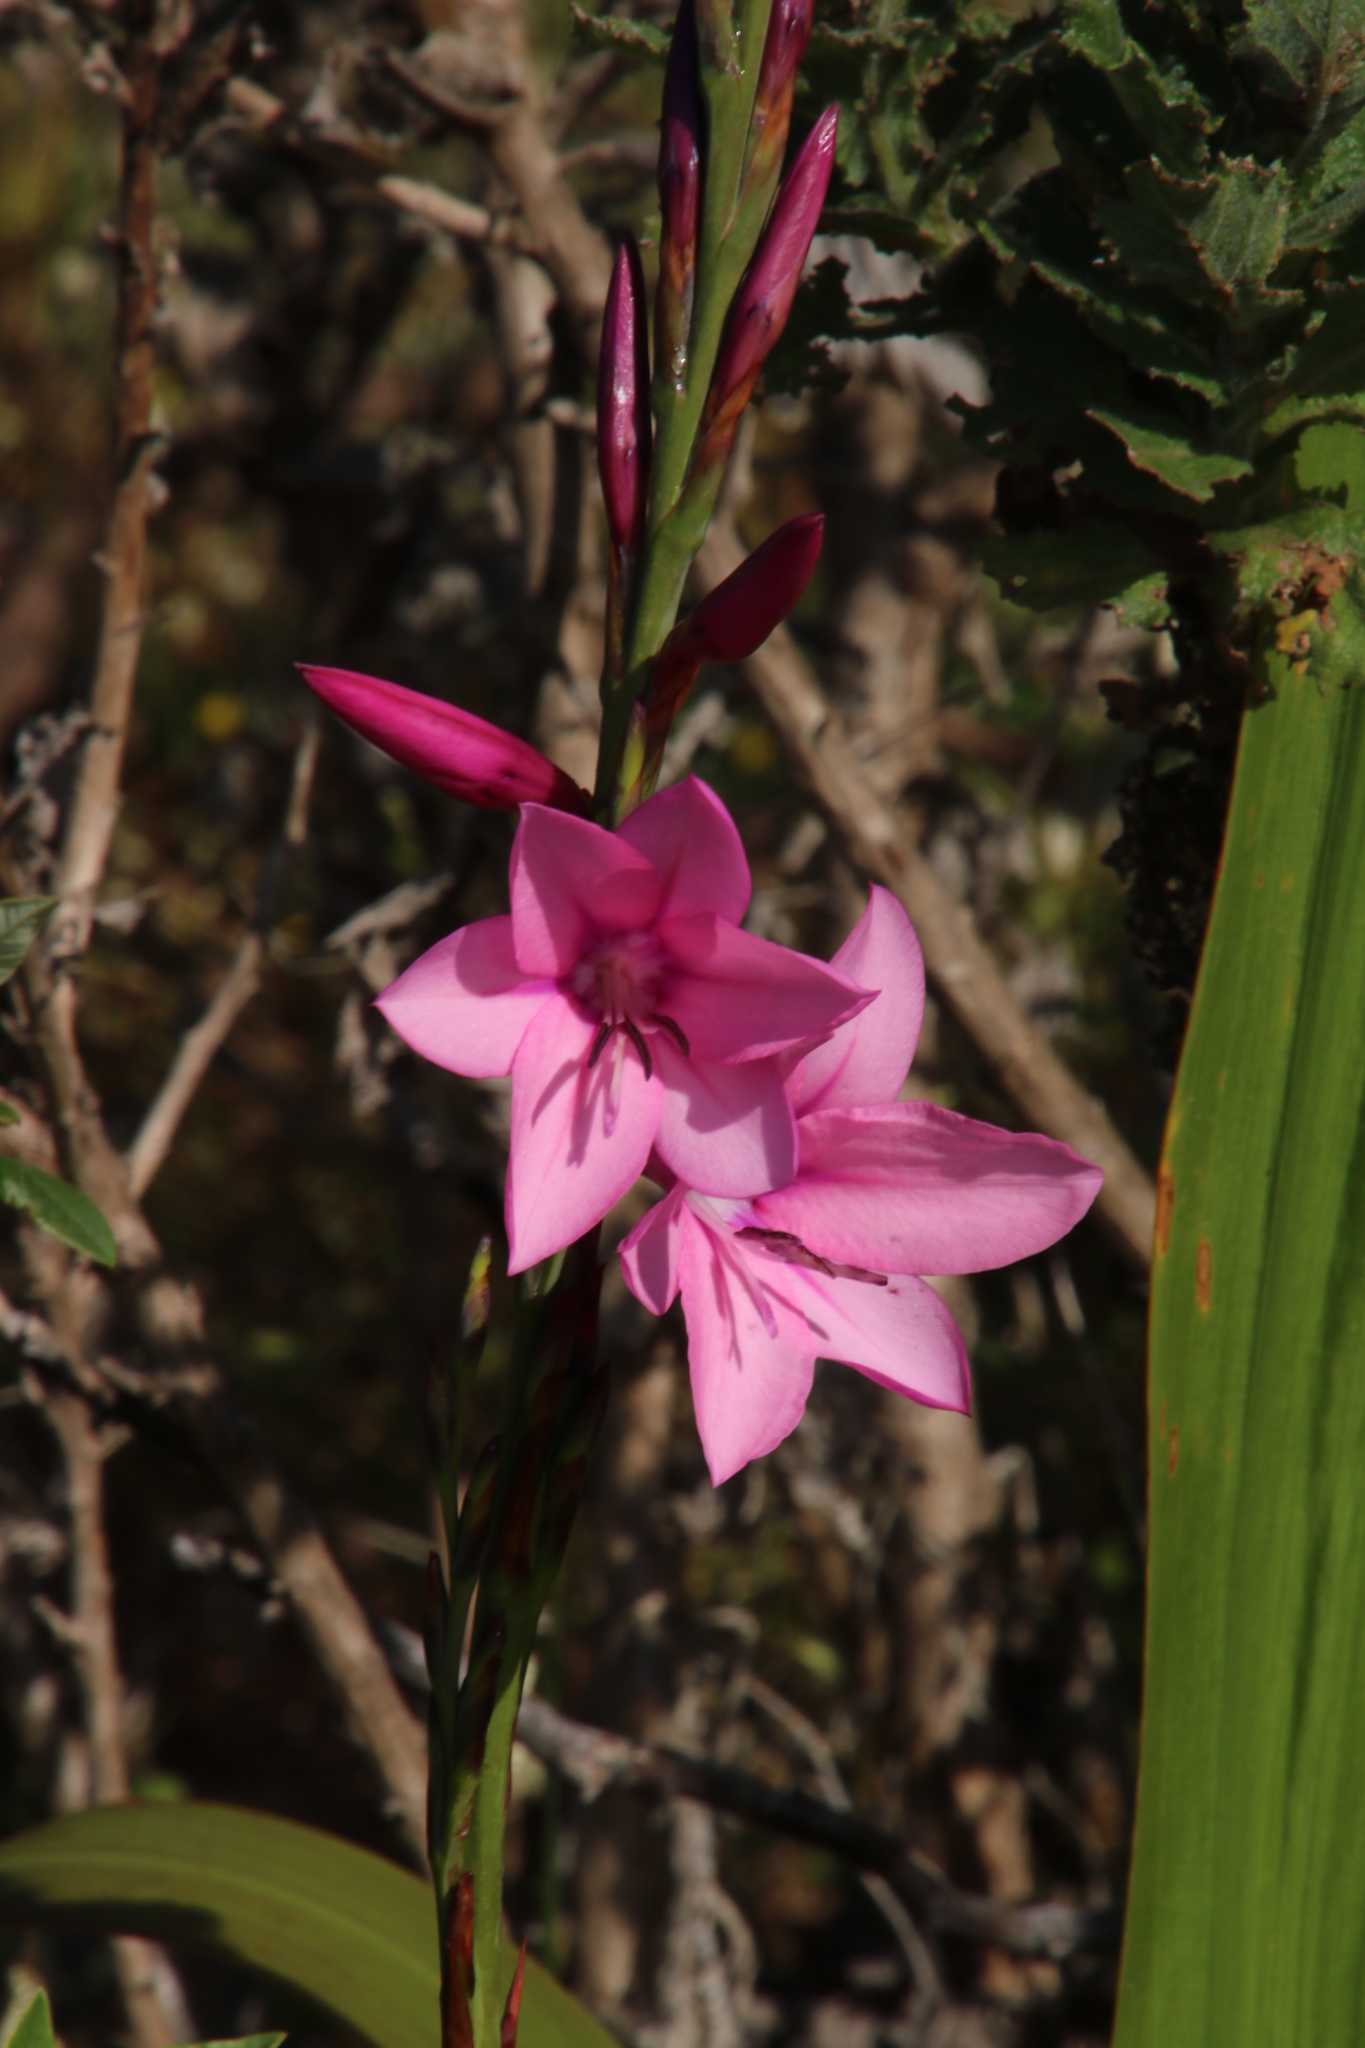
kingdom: Plantae
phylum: Tracheophyta
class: Liliopsida
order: Asparagales
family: Iridaceae
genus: Watsonia
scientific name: Watsonia borbonica
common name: Bugle-lily
